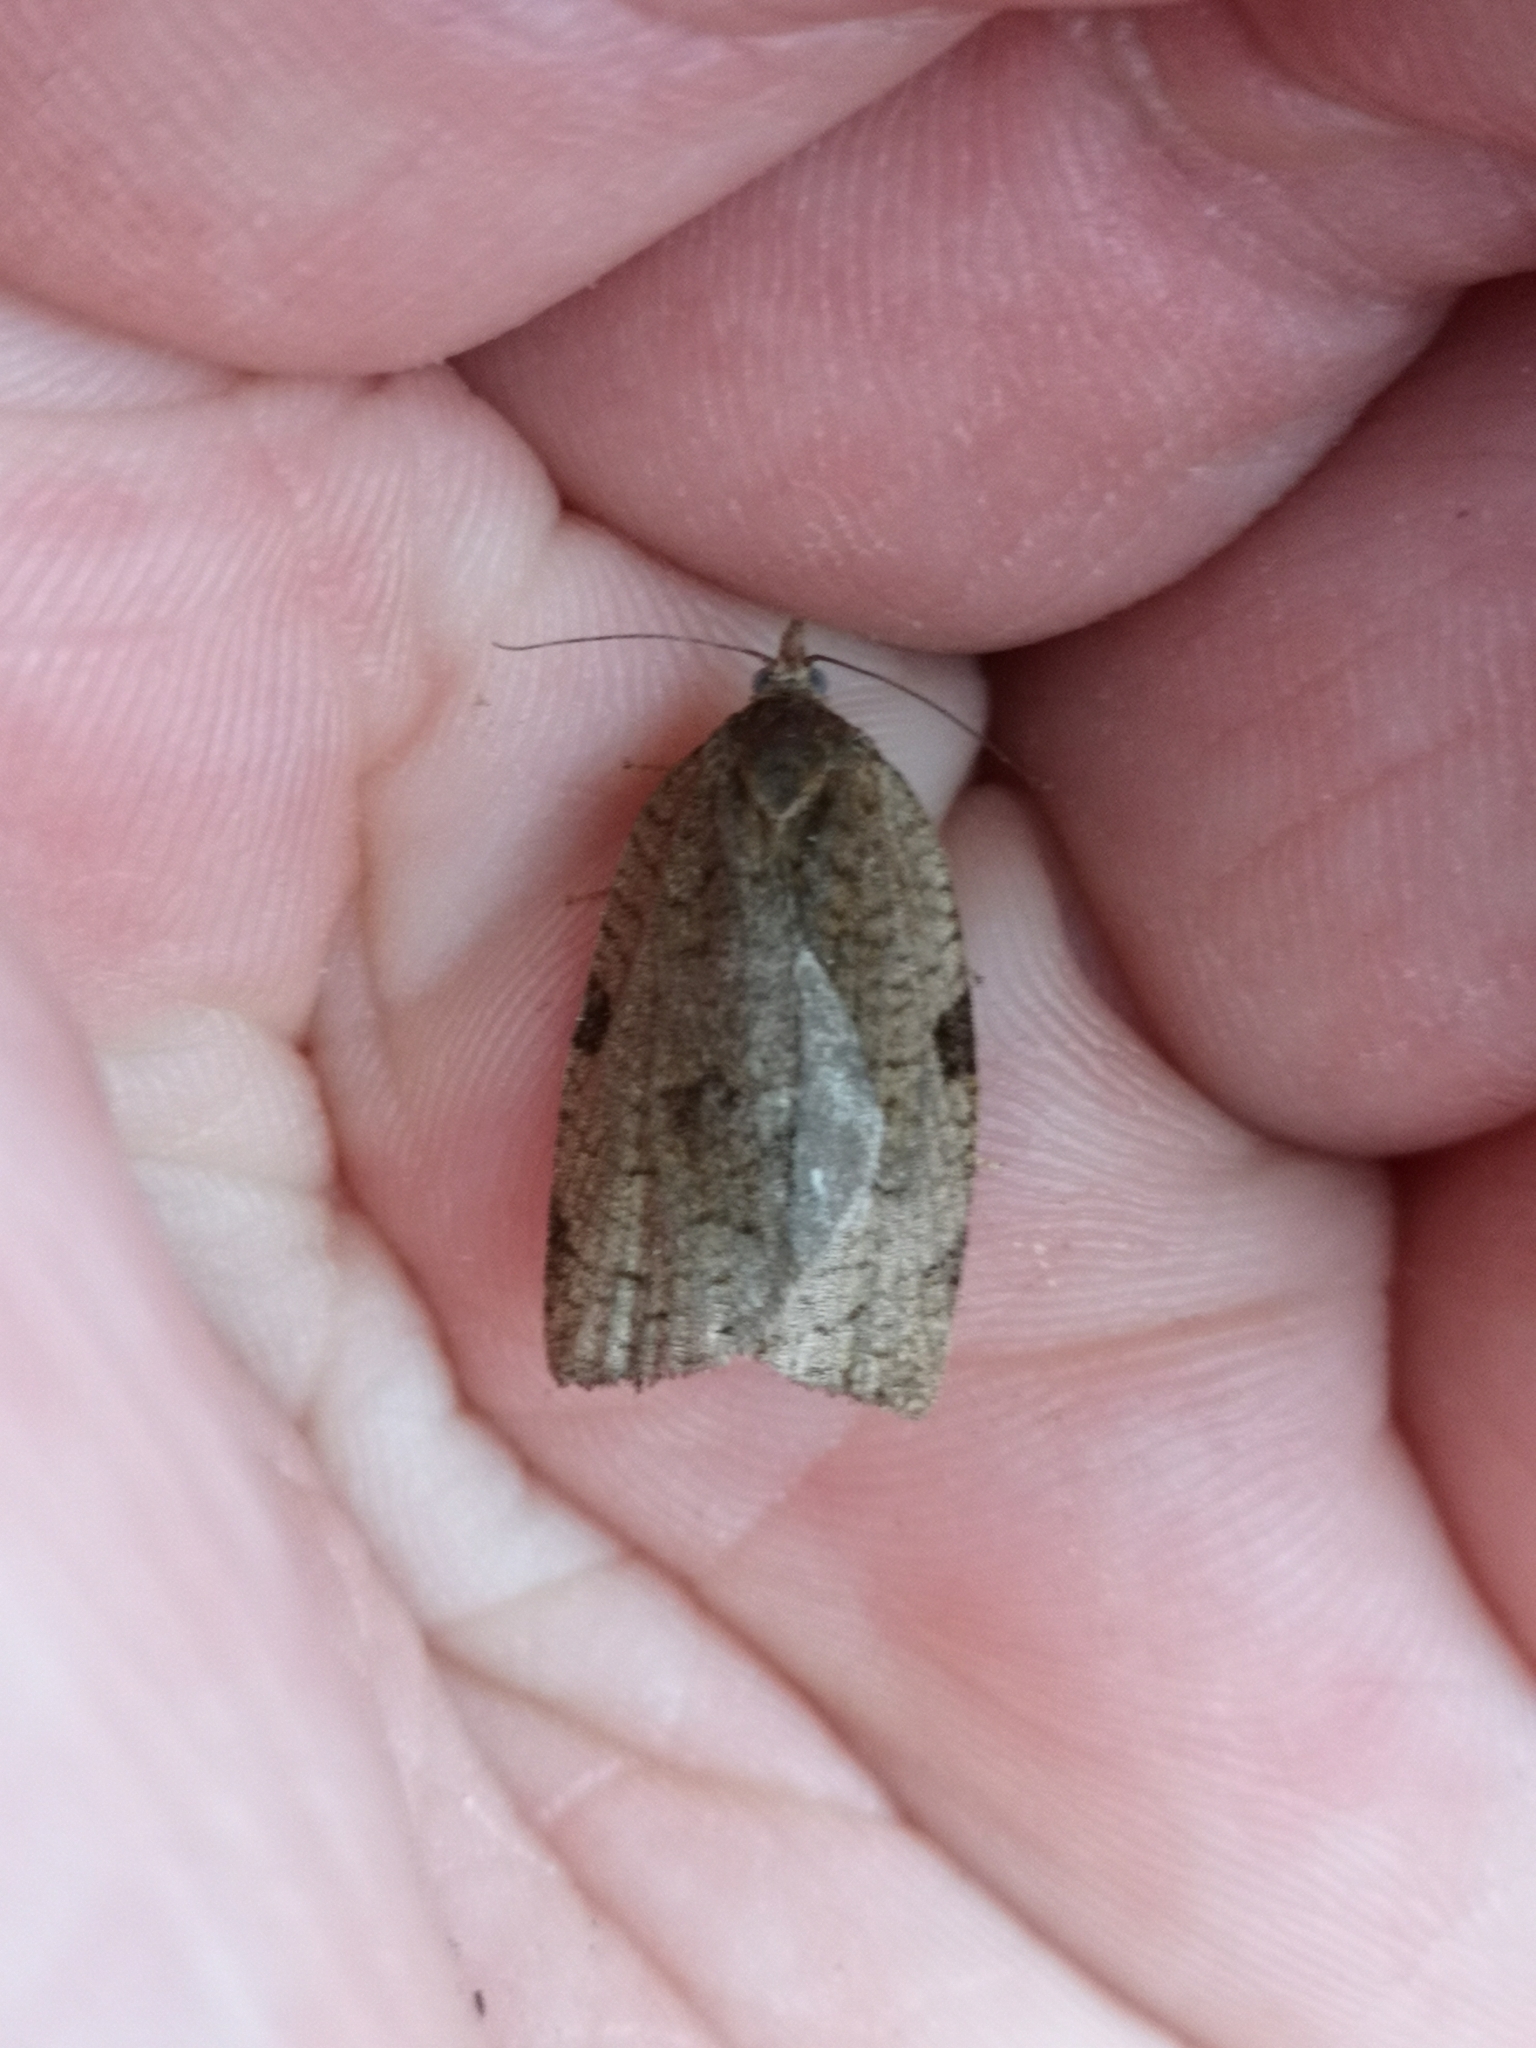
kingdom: Animalia
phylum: Arthropoda
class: Insecta
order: Lepidoptera
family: Tortricidae
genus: Lozotaenia
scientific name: Lozotaenia forsterana
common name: Large ivy twist
